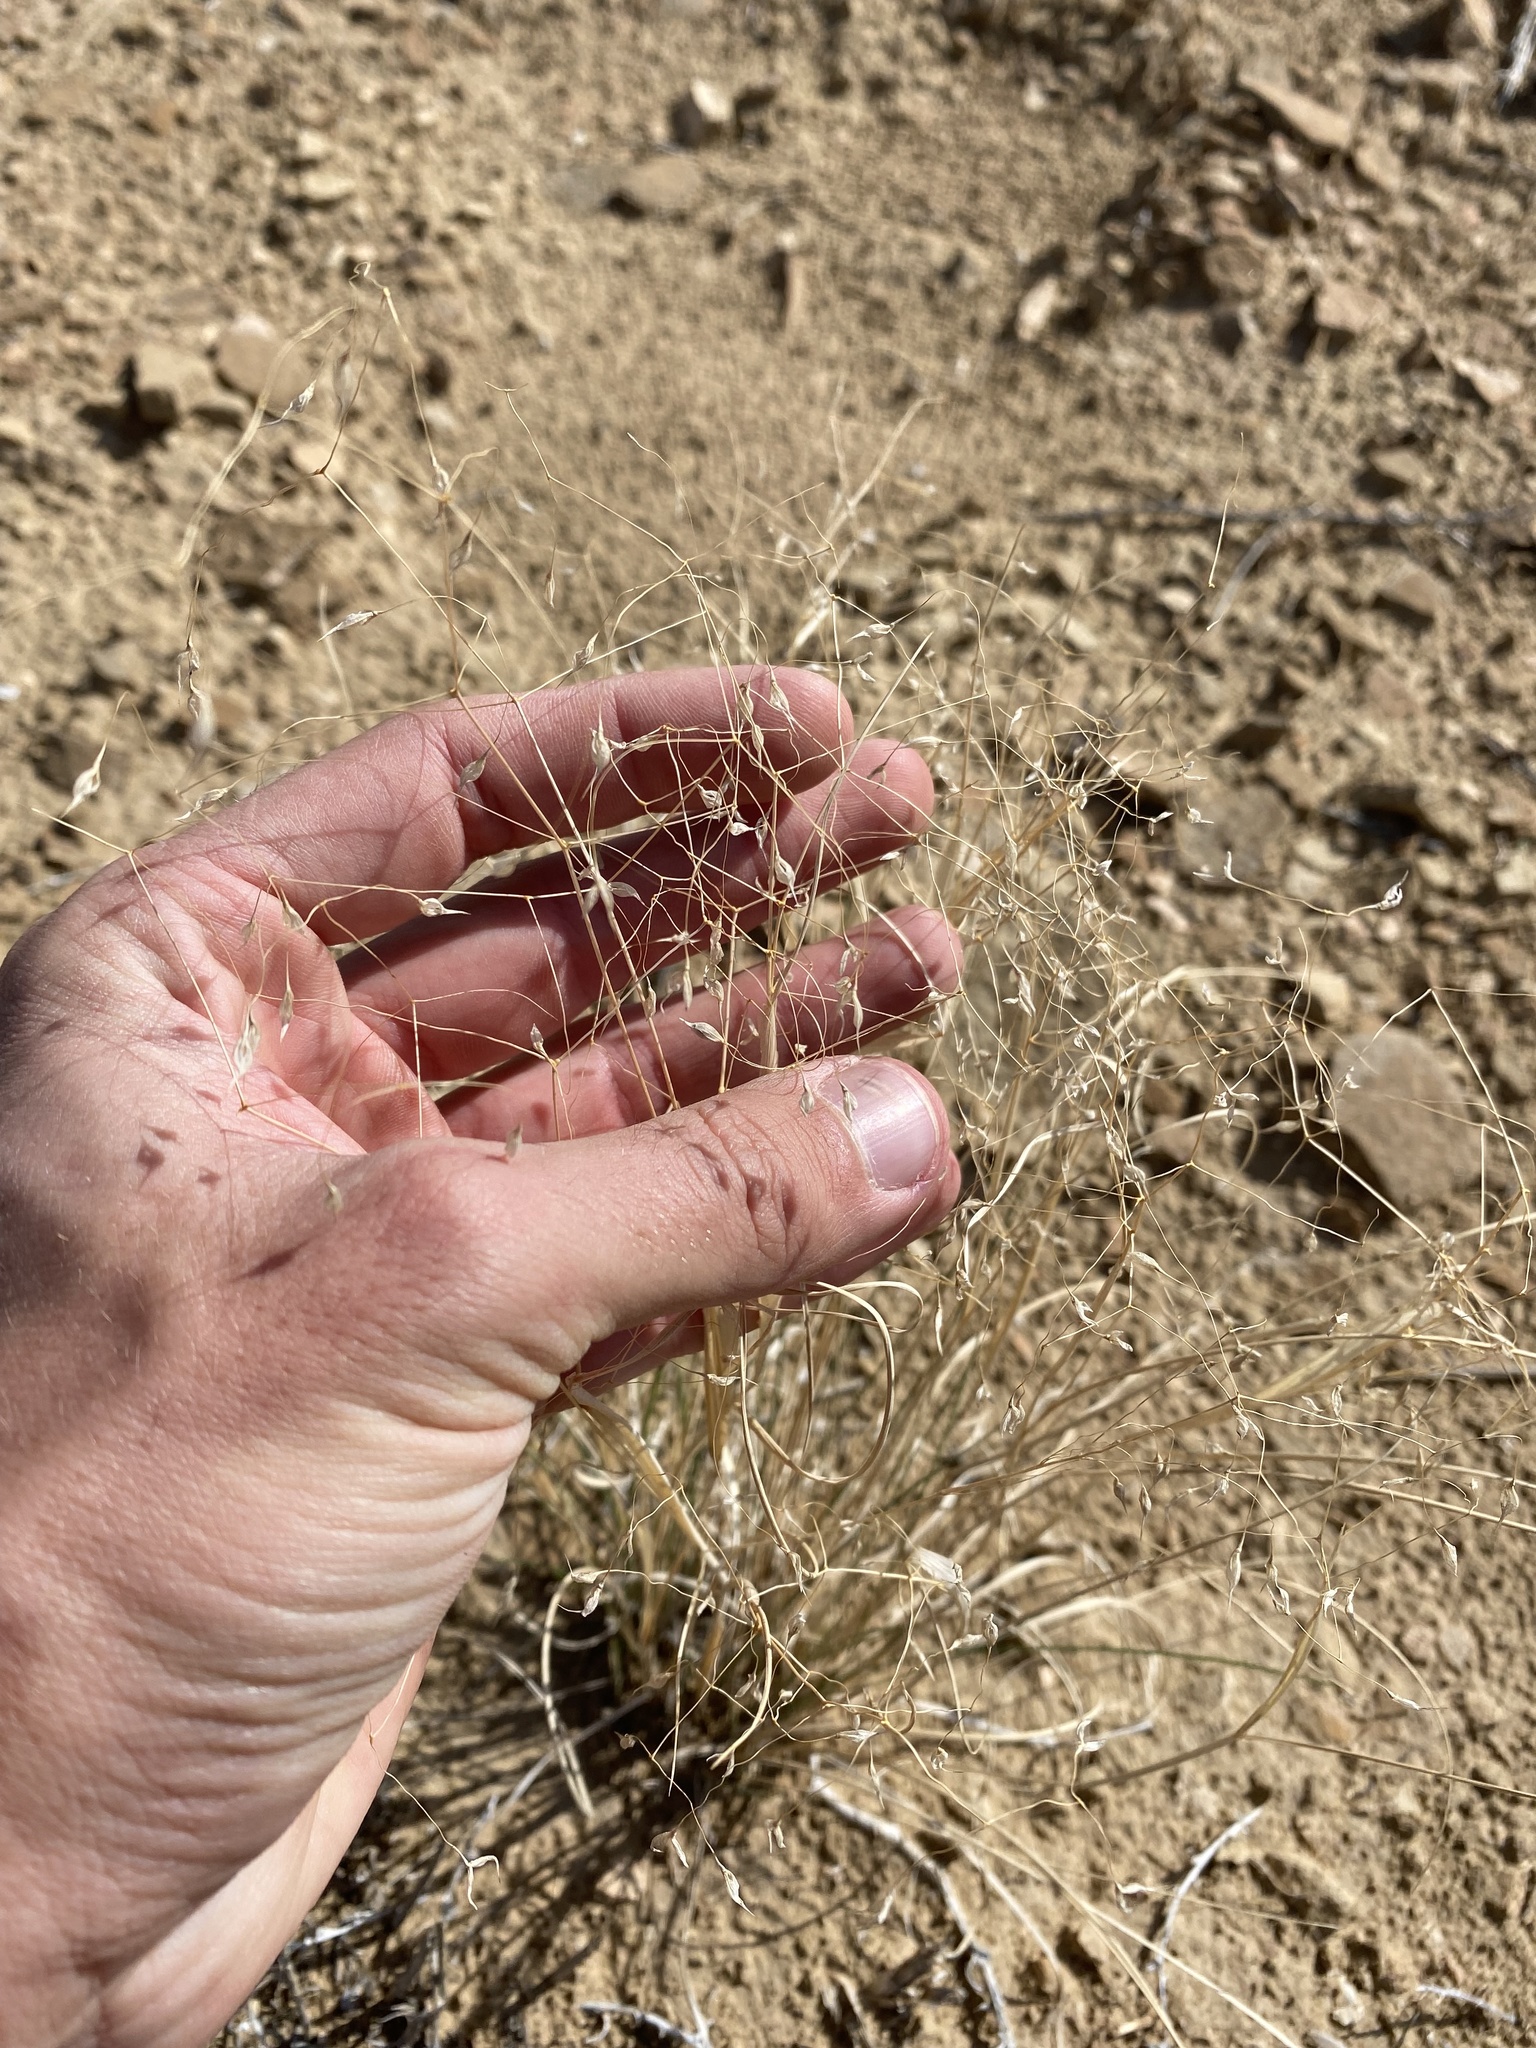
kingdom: Plantae
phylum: Tracheophyta
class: Liliopsida
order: Poales
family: Poaceae
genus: Eriocoma
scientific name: Eriocoma hymenoides
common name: Indian mountain ricegrass
